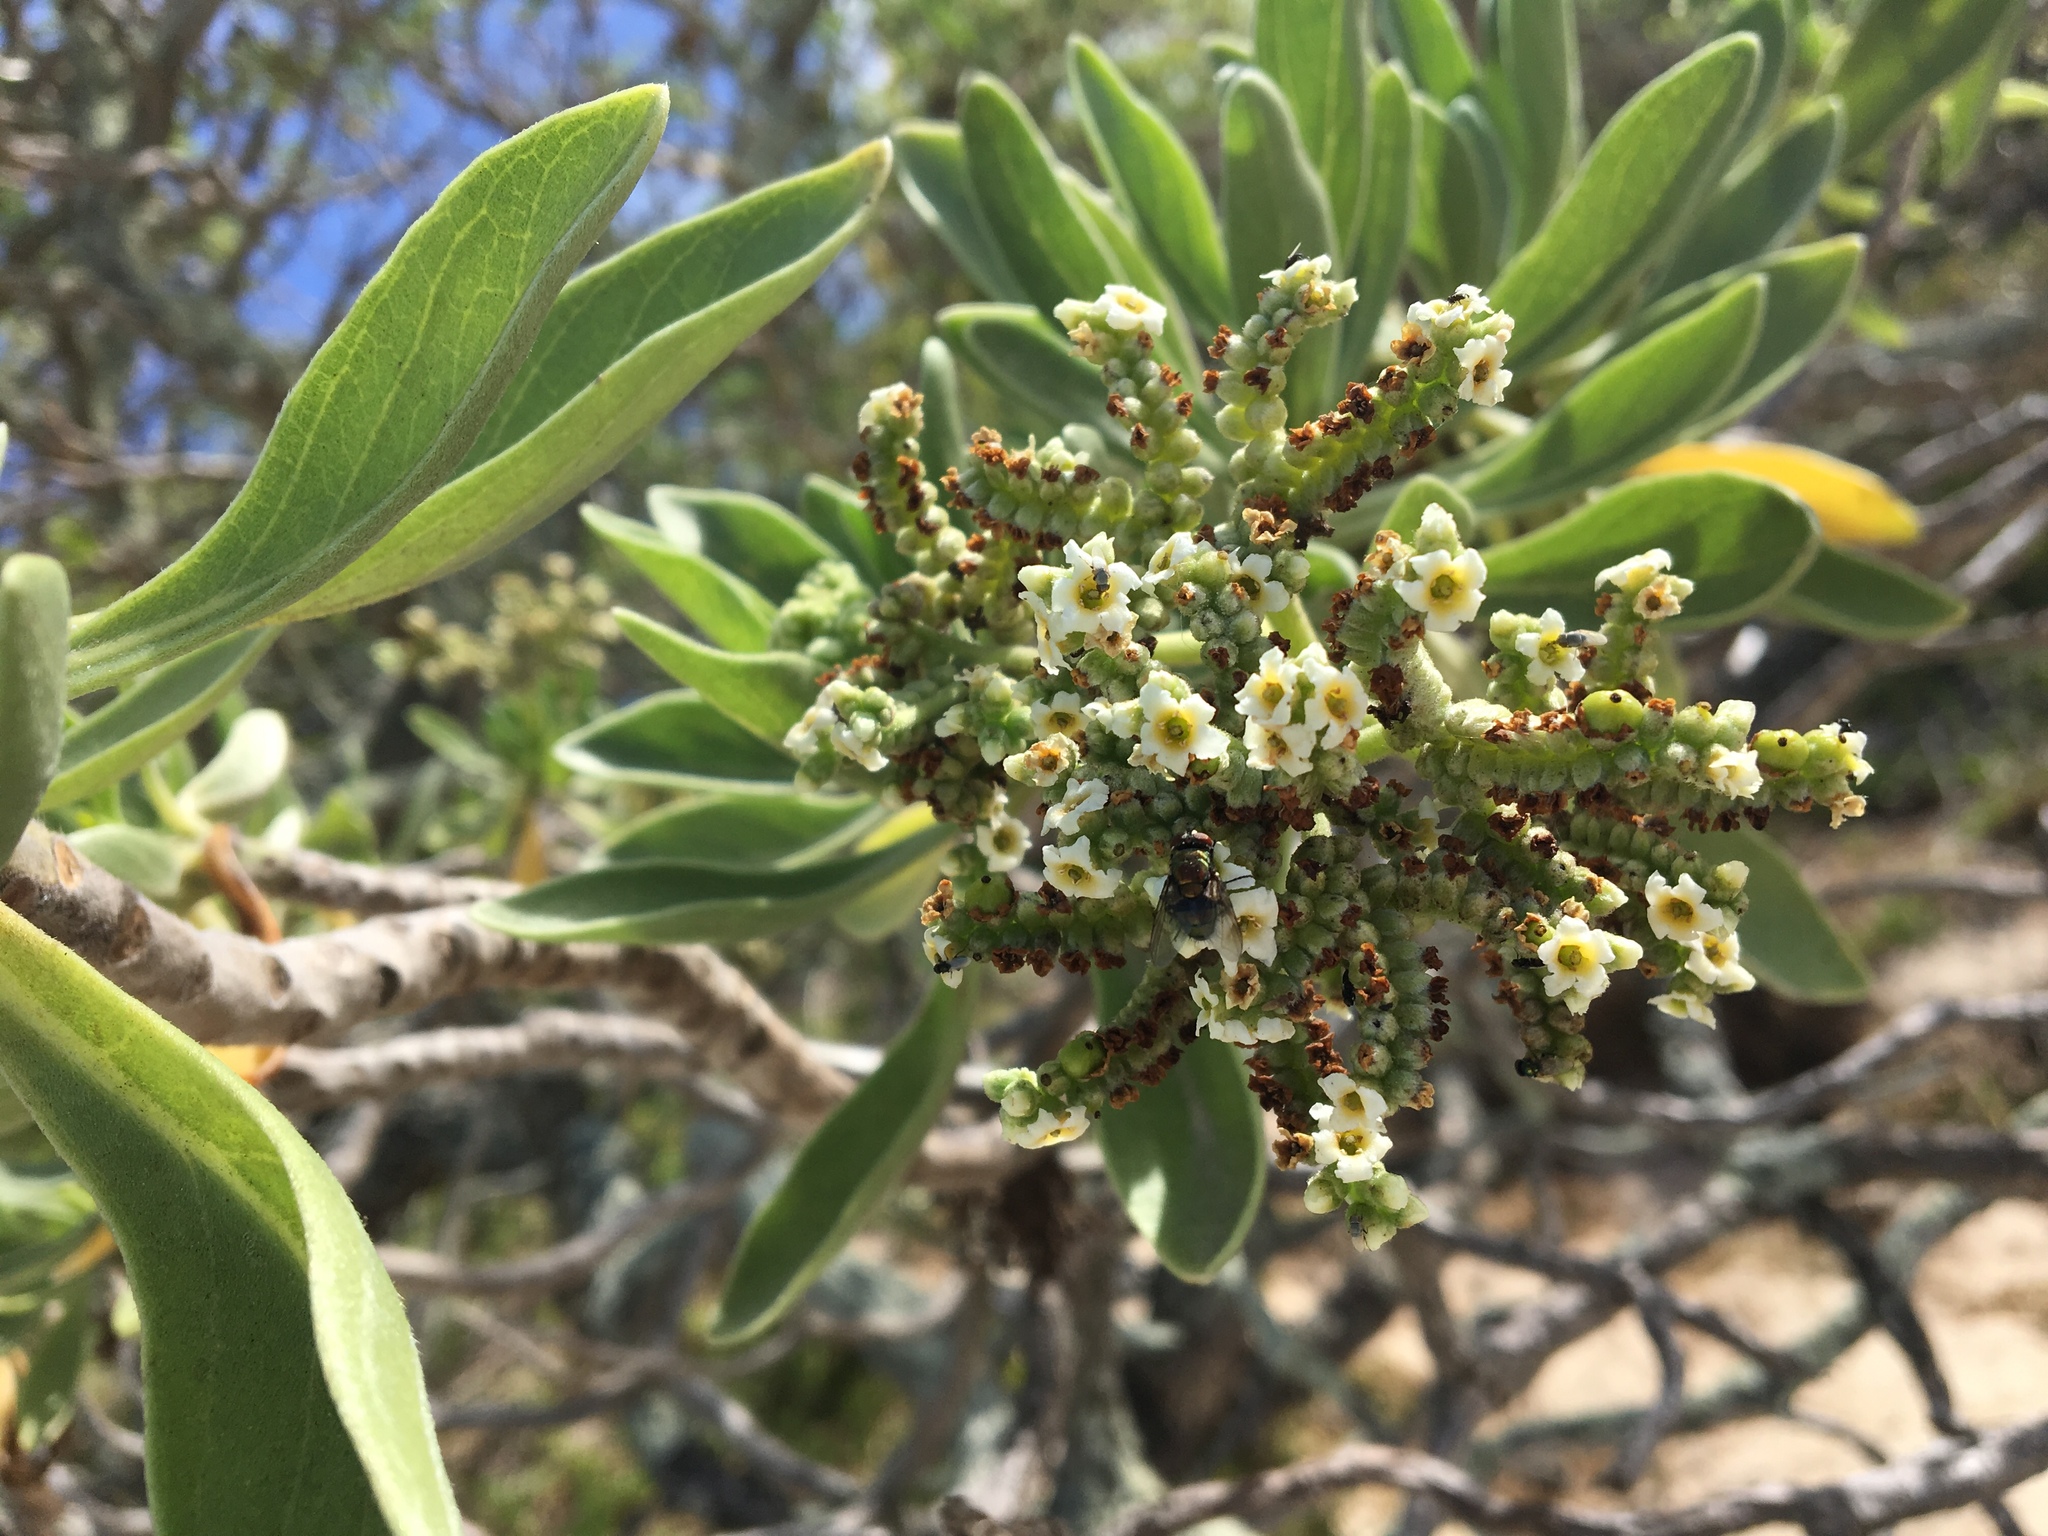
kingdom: Plantae
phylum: Tracheophyta
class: Magnoliopsida
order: Boraginales
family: Heliotropiaceae
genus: Heliotropium
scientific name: Heliotropium velutinum
